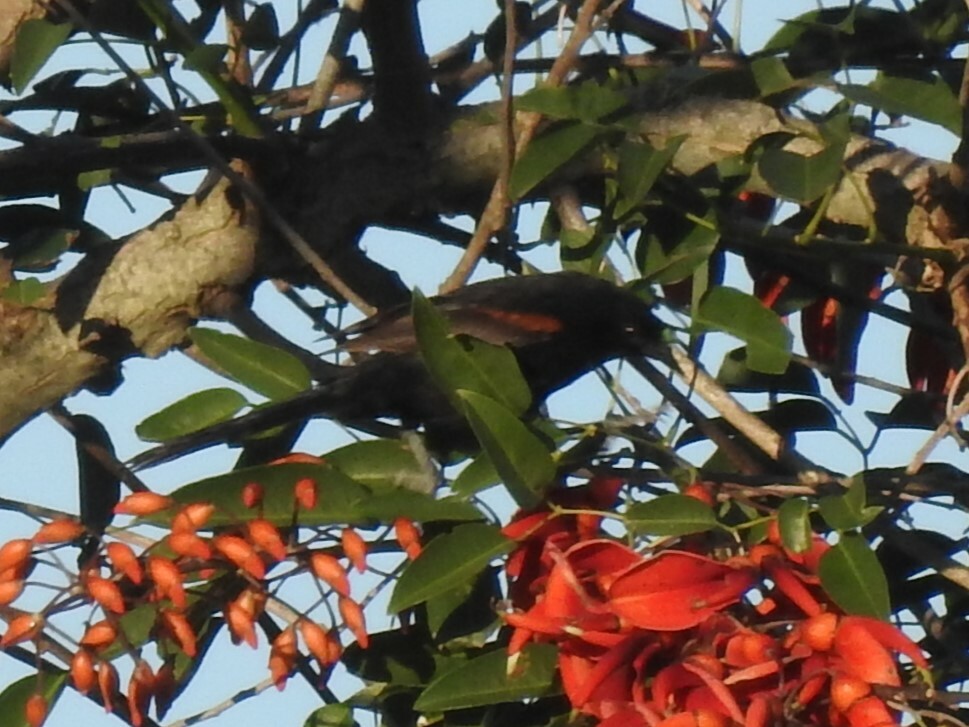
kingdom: Animalia
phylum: Chordata
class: Aves
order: Passeriformes
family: Icteridae
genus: Icterus
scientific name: Icterus cayanensis
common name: Epaulet oriole
